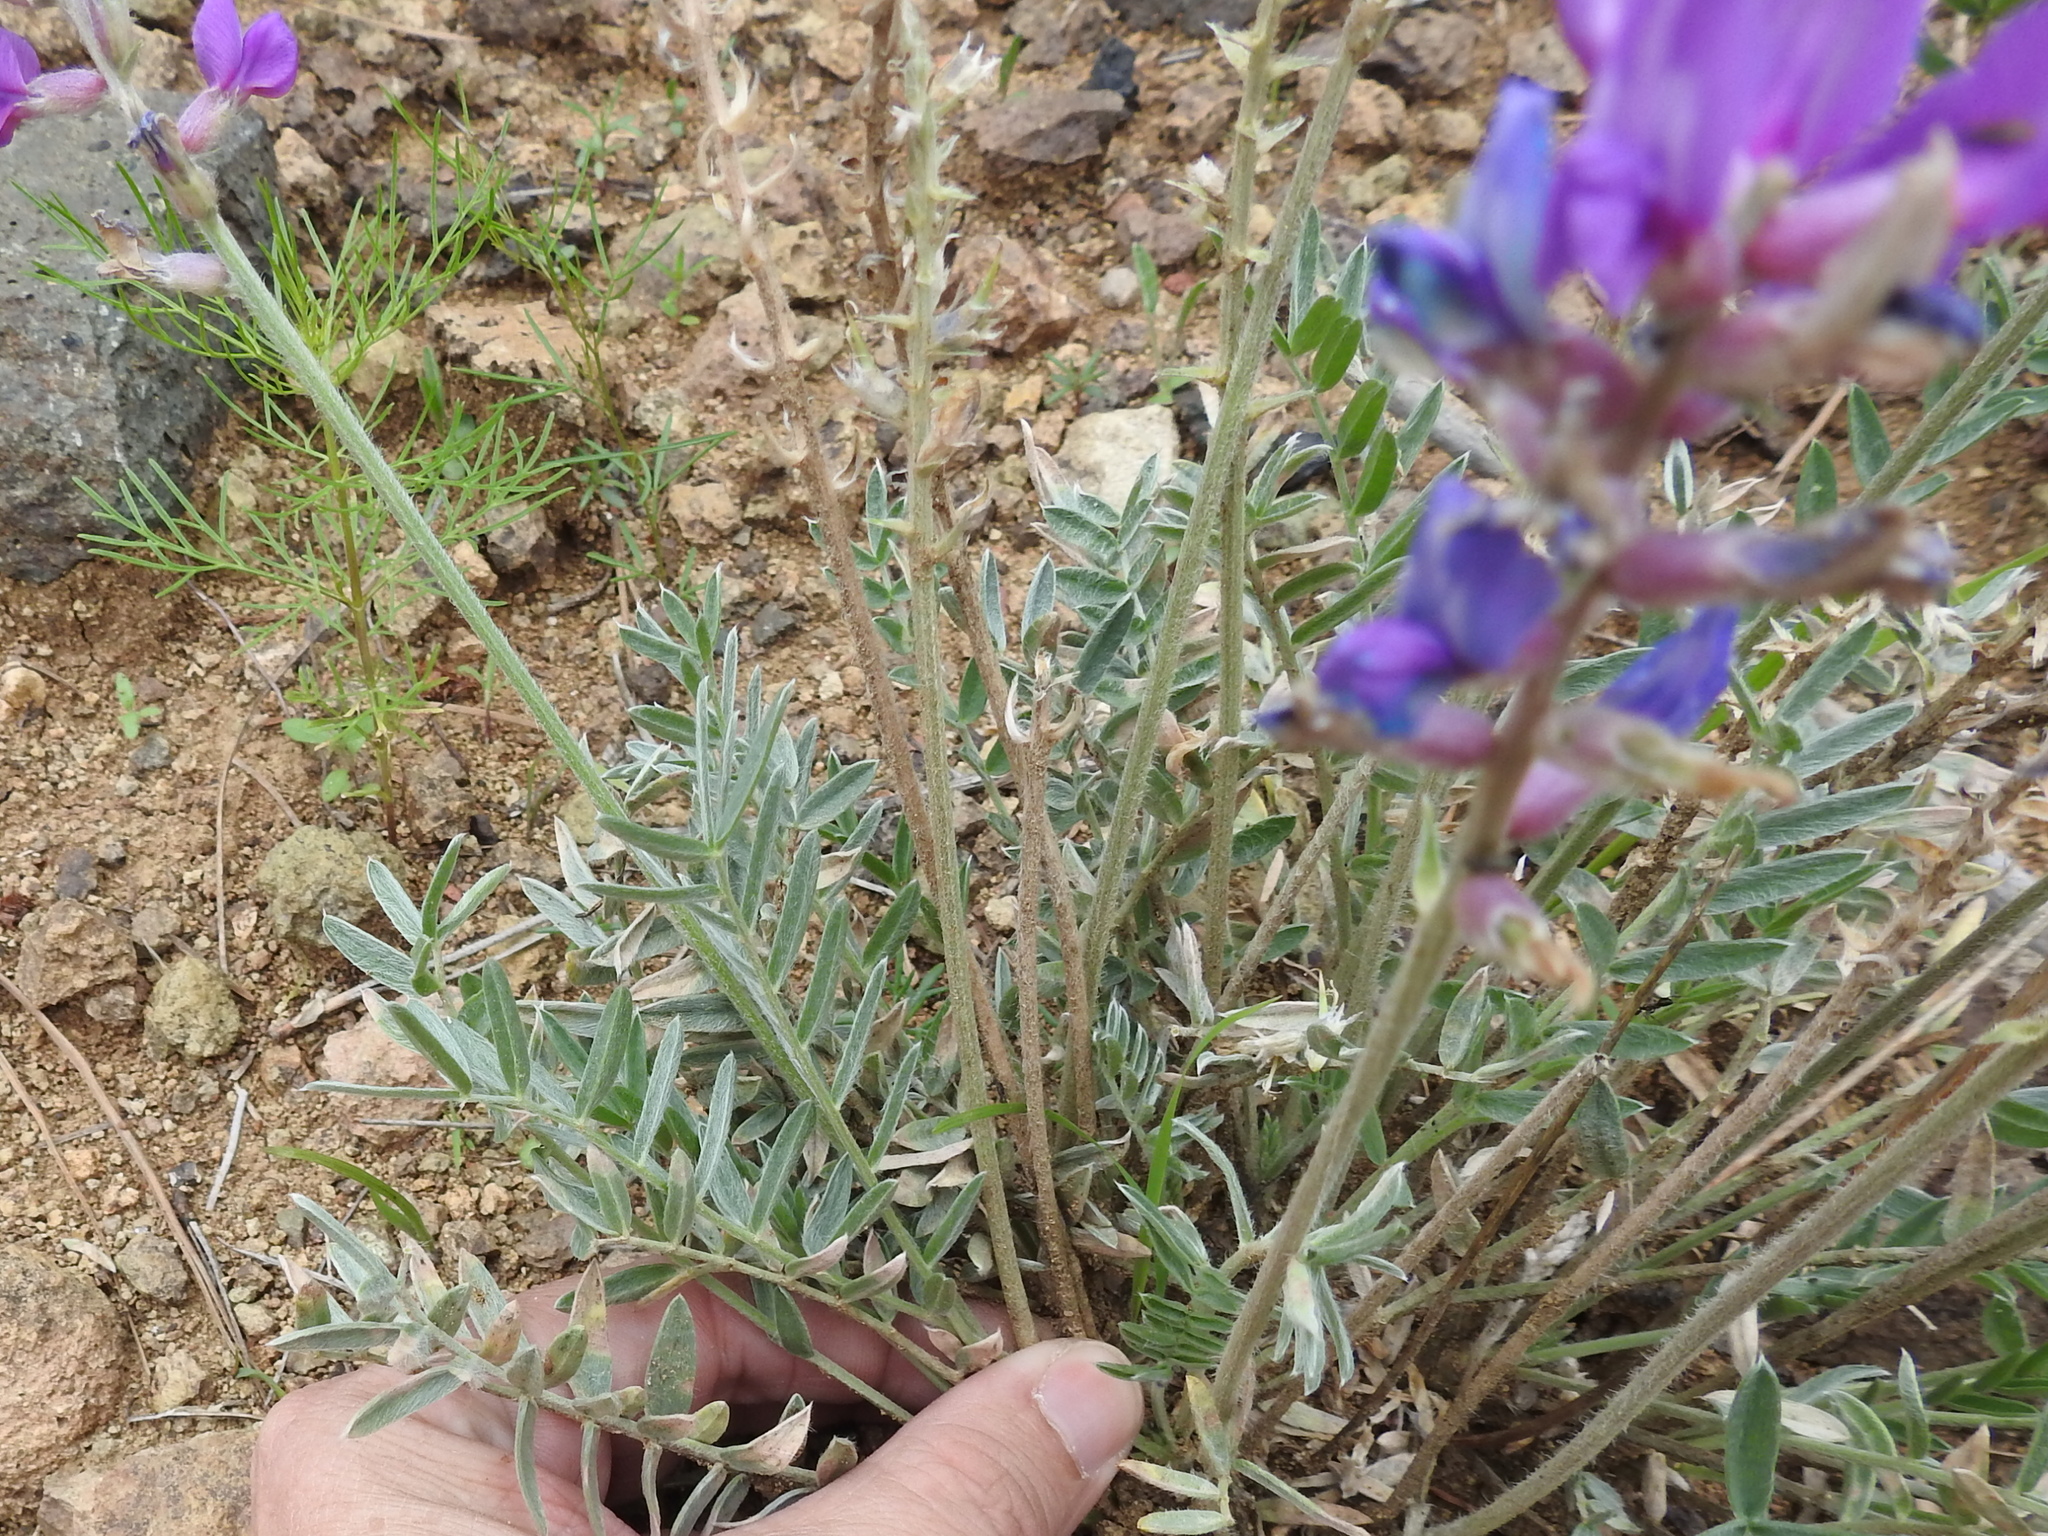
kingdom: Plantae
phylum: Tracheophyta
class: Magnoliopsida
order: Fabales
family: Fabaceae
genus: Oxytropis
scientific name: Oxytropis lambertii
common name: Purple locoweed
